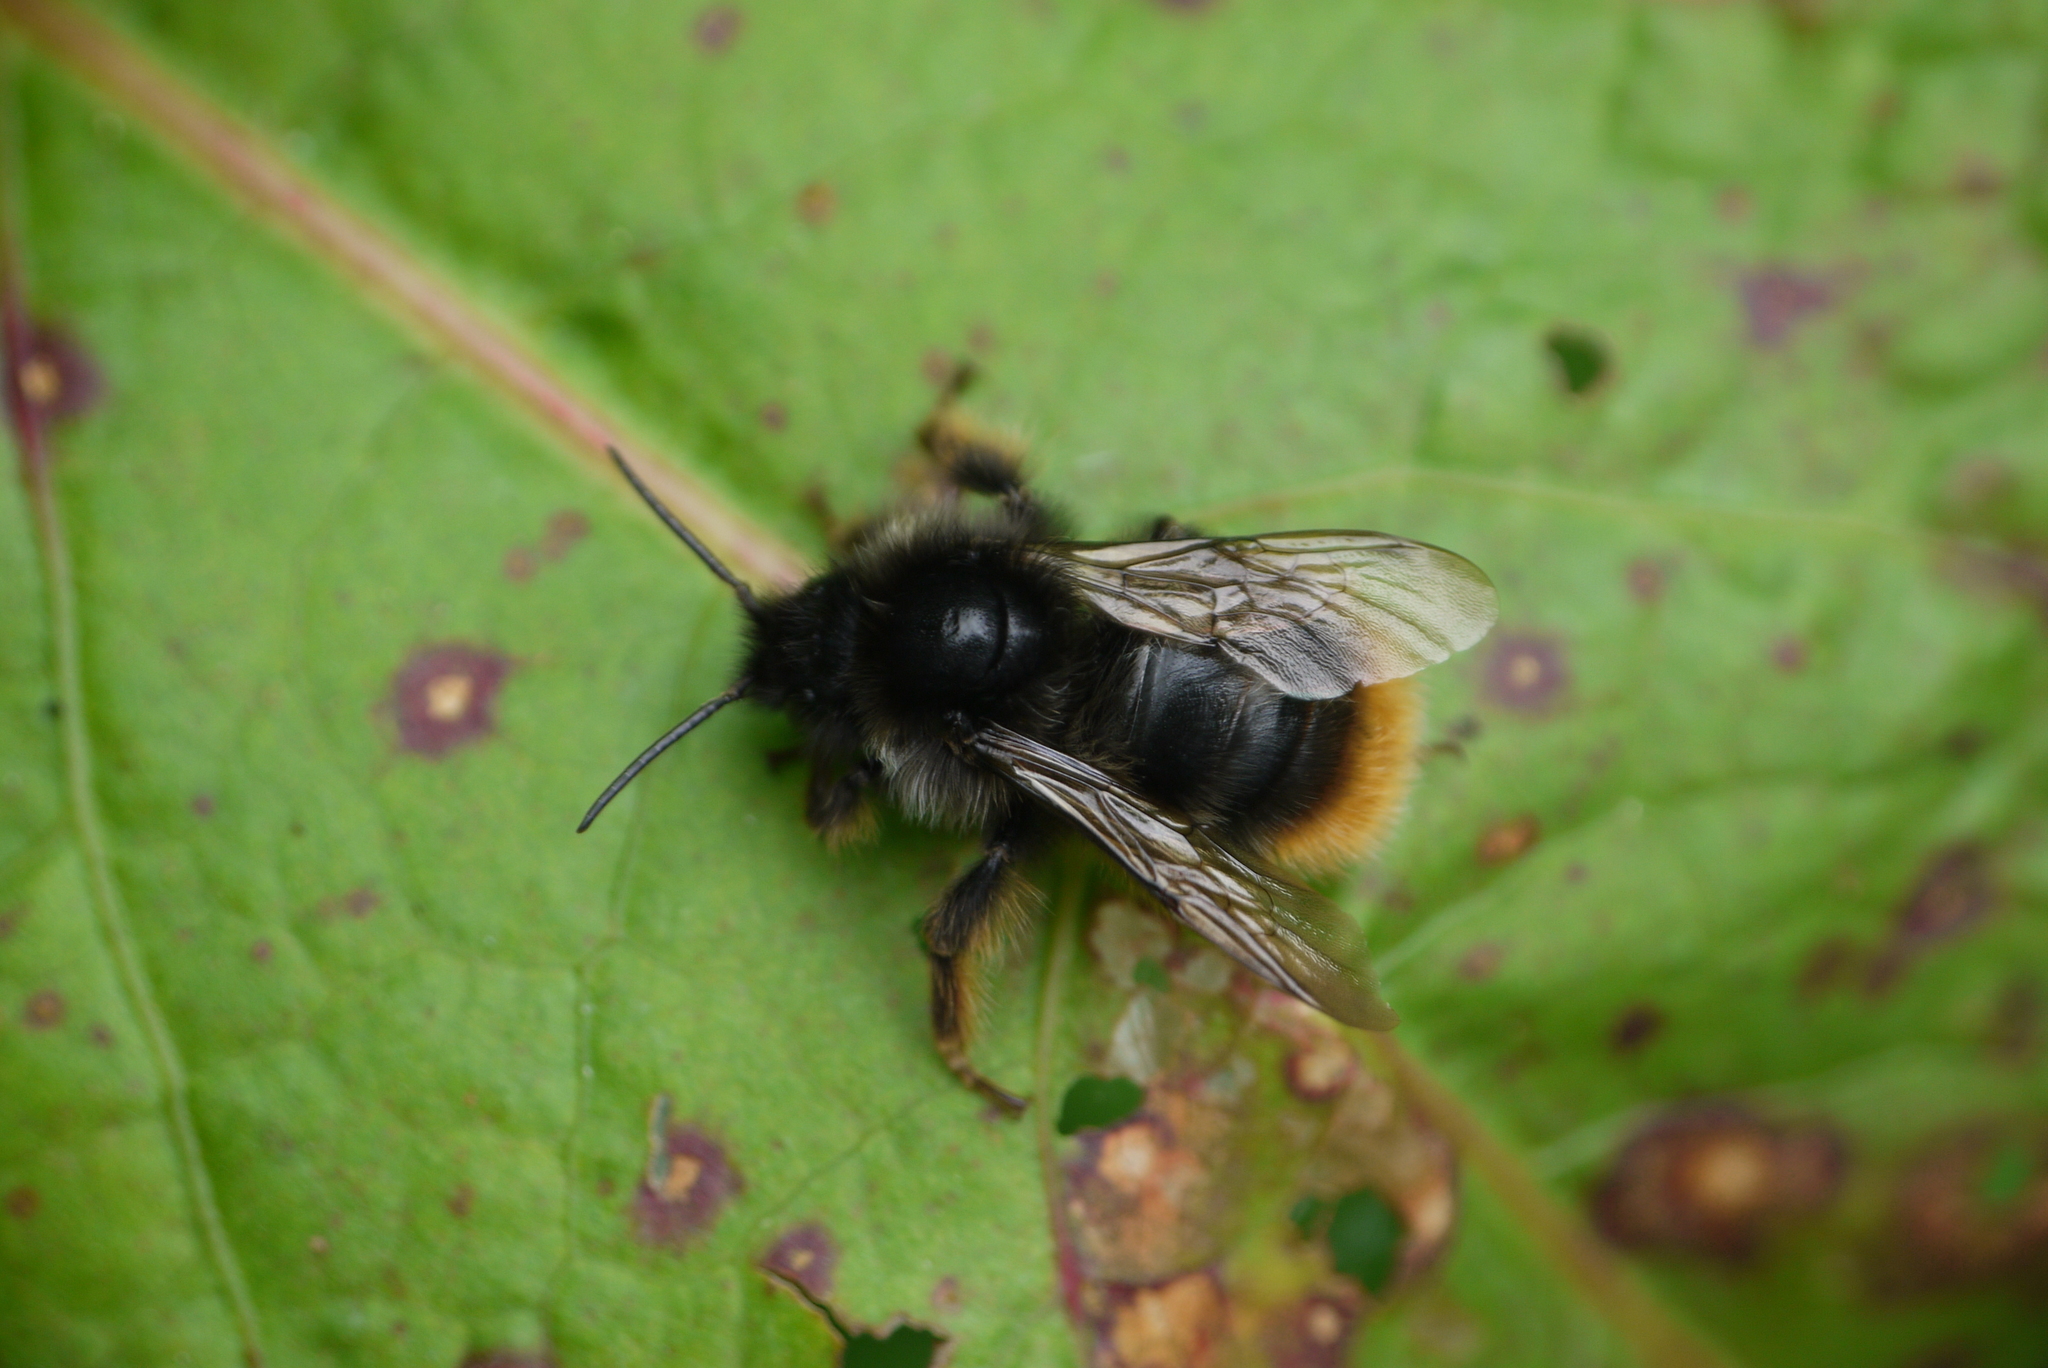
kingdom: Animalia
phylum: Arthropoda
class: Insecta
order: Hymenoptera
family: Apidae
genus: Bombus
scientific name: Bombus rupestris
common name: Hill cuckoo-bee
